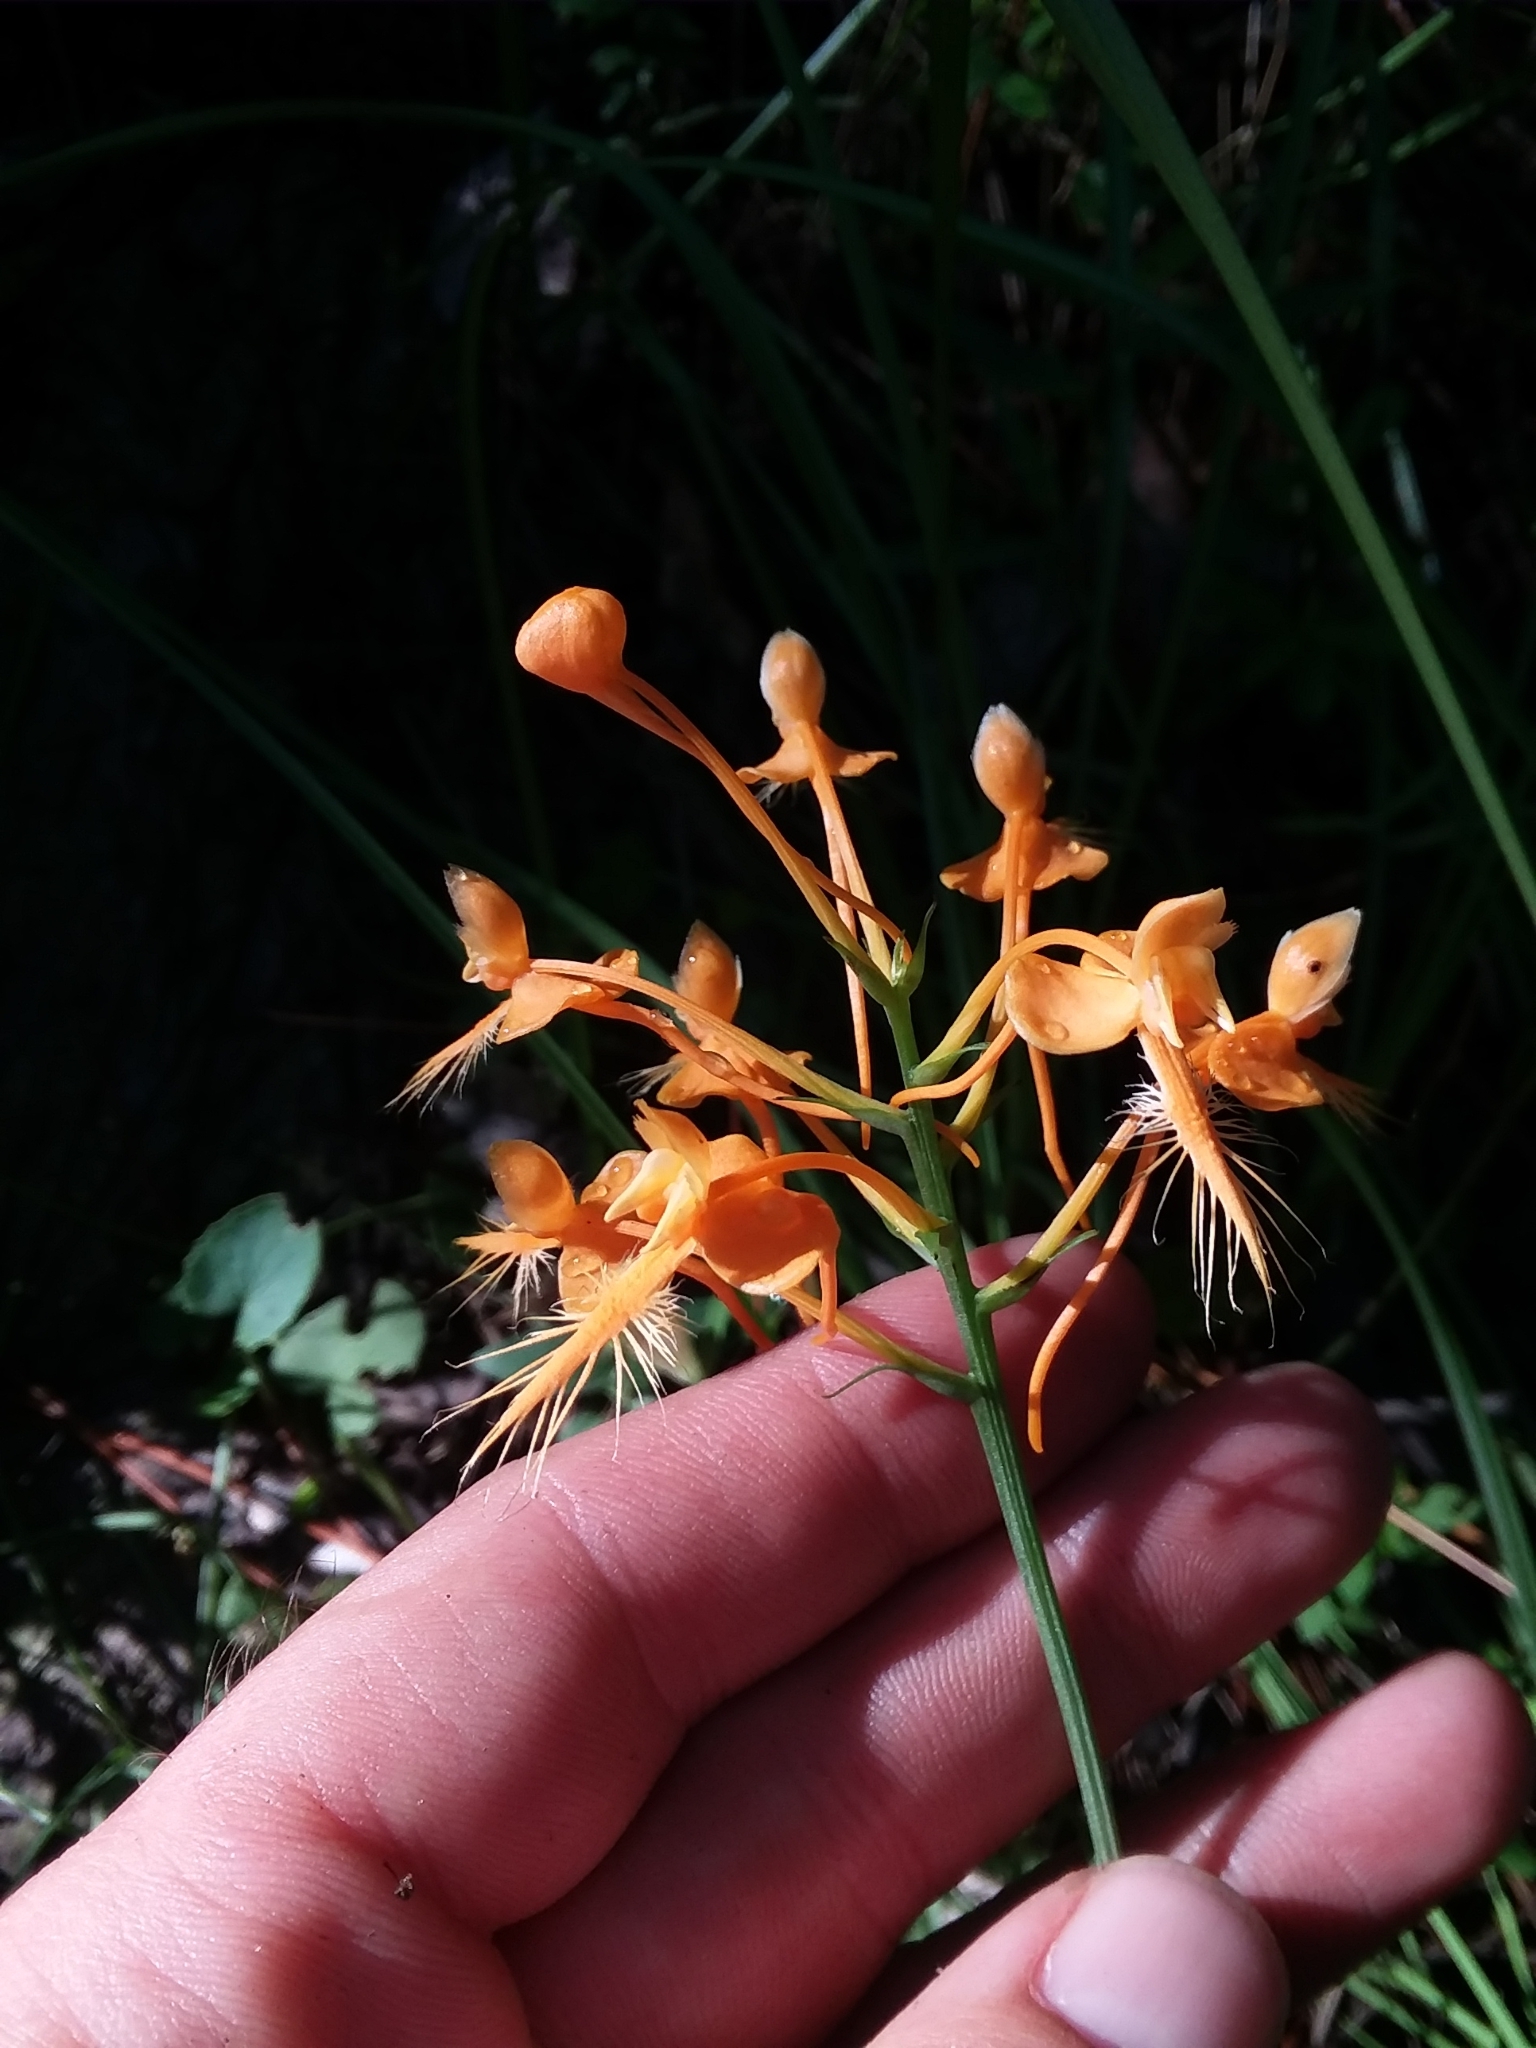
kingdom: Plantae
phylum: Tracheophyta
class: Liliopsida
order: Asparagales
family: Orchidaceae
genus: Platanthera
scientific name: Platanthera ciliaris
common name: Yellow fringed orchid
